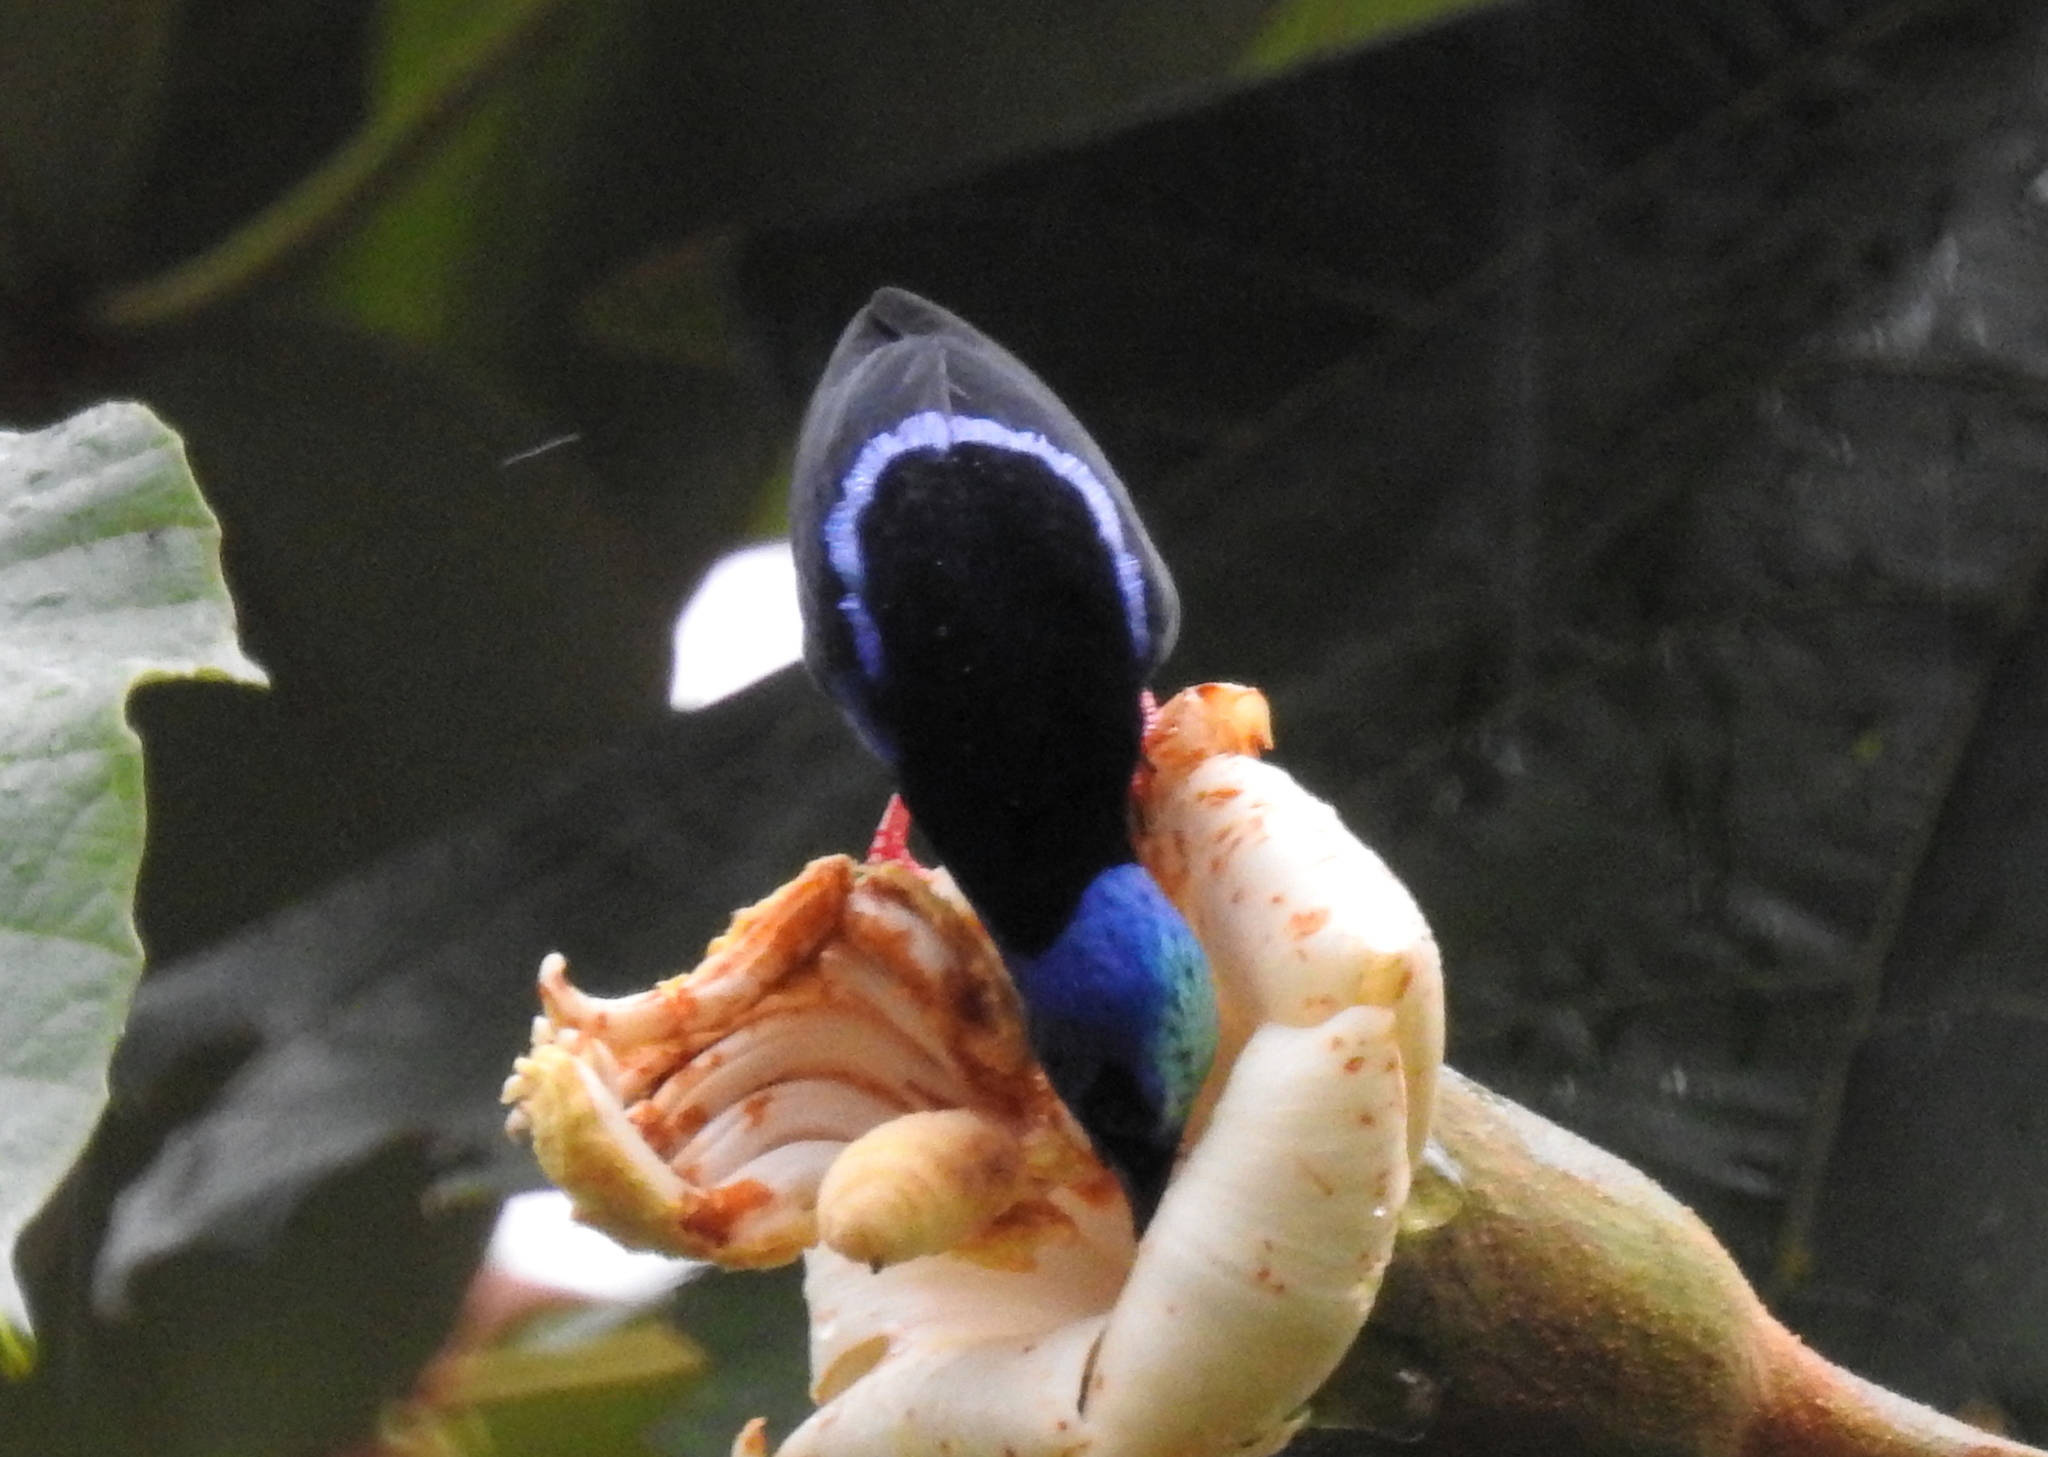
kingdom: Animalia
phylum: Chordata
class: Aves
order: Passeriformes
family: Thraupidae
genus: Cyanerpes
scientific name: Cyanerpes cyaneus
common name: Red-legged honeycreeper
